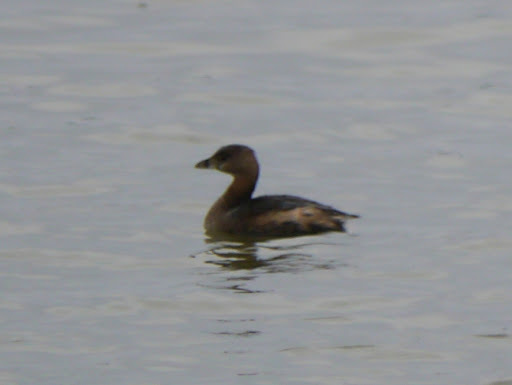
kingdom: Animalia
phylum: Chordata
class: Aves
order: Podicipediformes
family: Podicipedidae
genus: Podilymbus
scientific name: Podilymbus podiceps
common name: Pied-billed grebe
